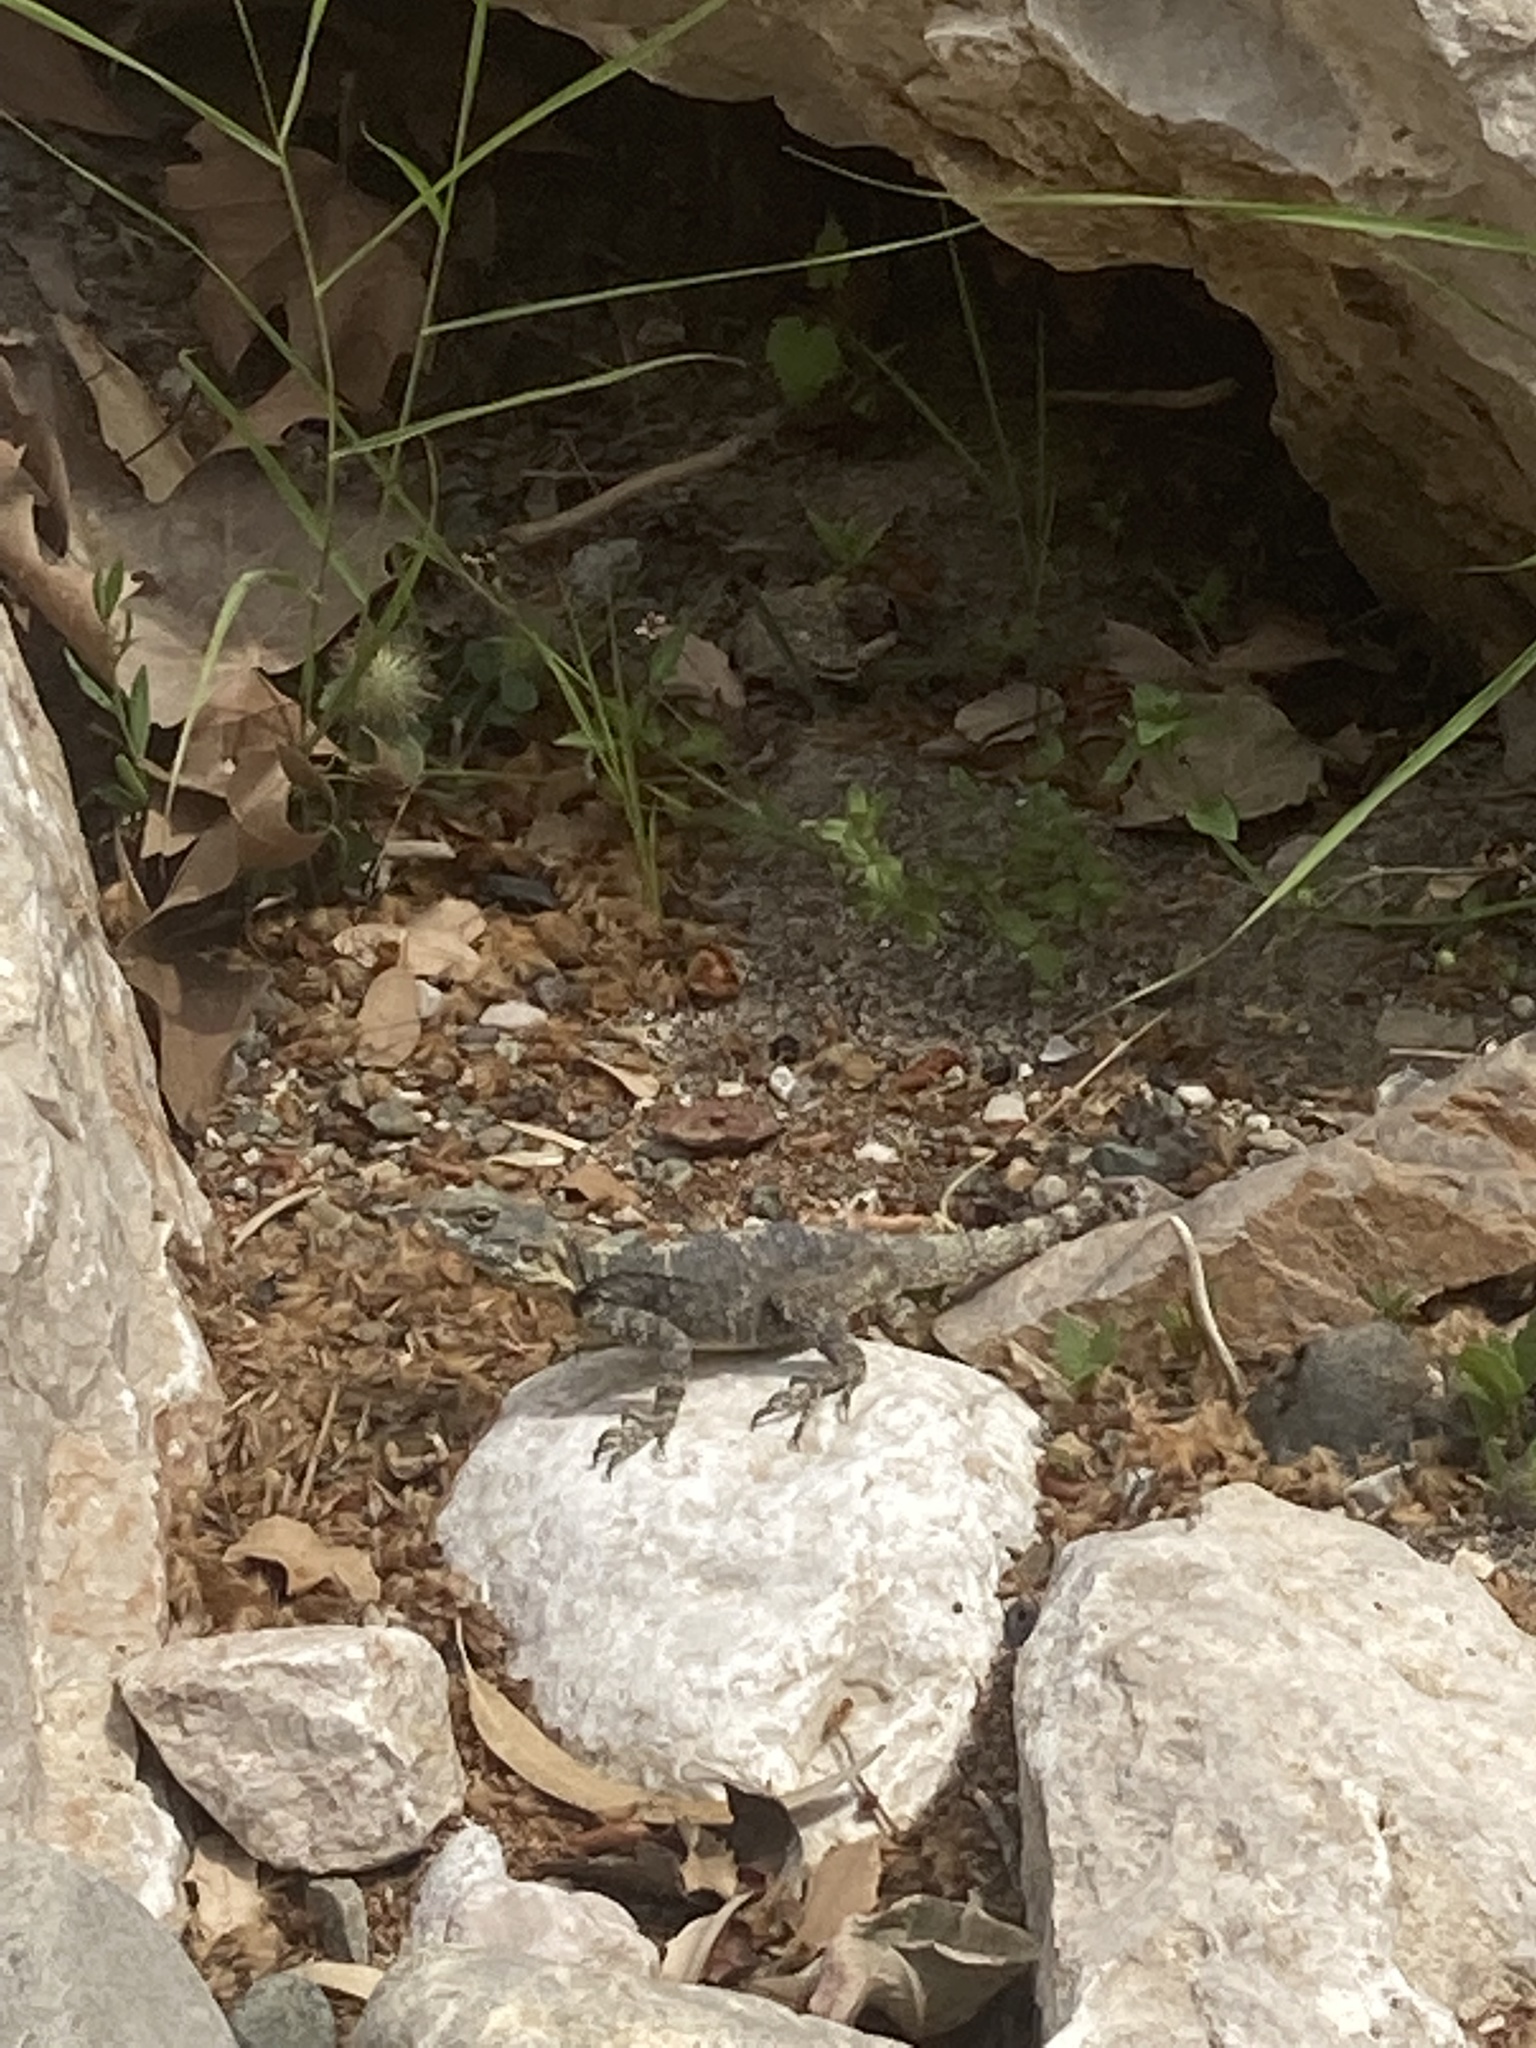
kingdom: Animalia
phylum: Chordata
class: Squamata
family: Agamidae
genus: Stellagama
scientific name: Stellagama stellio
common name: Starred agama
